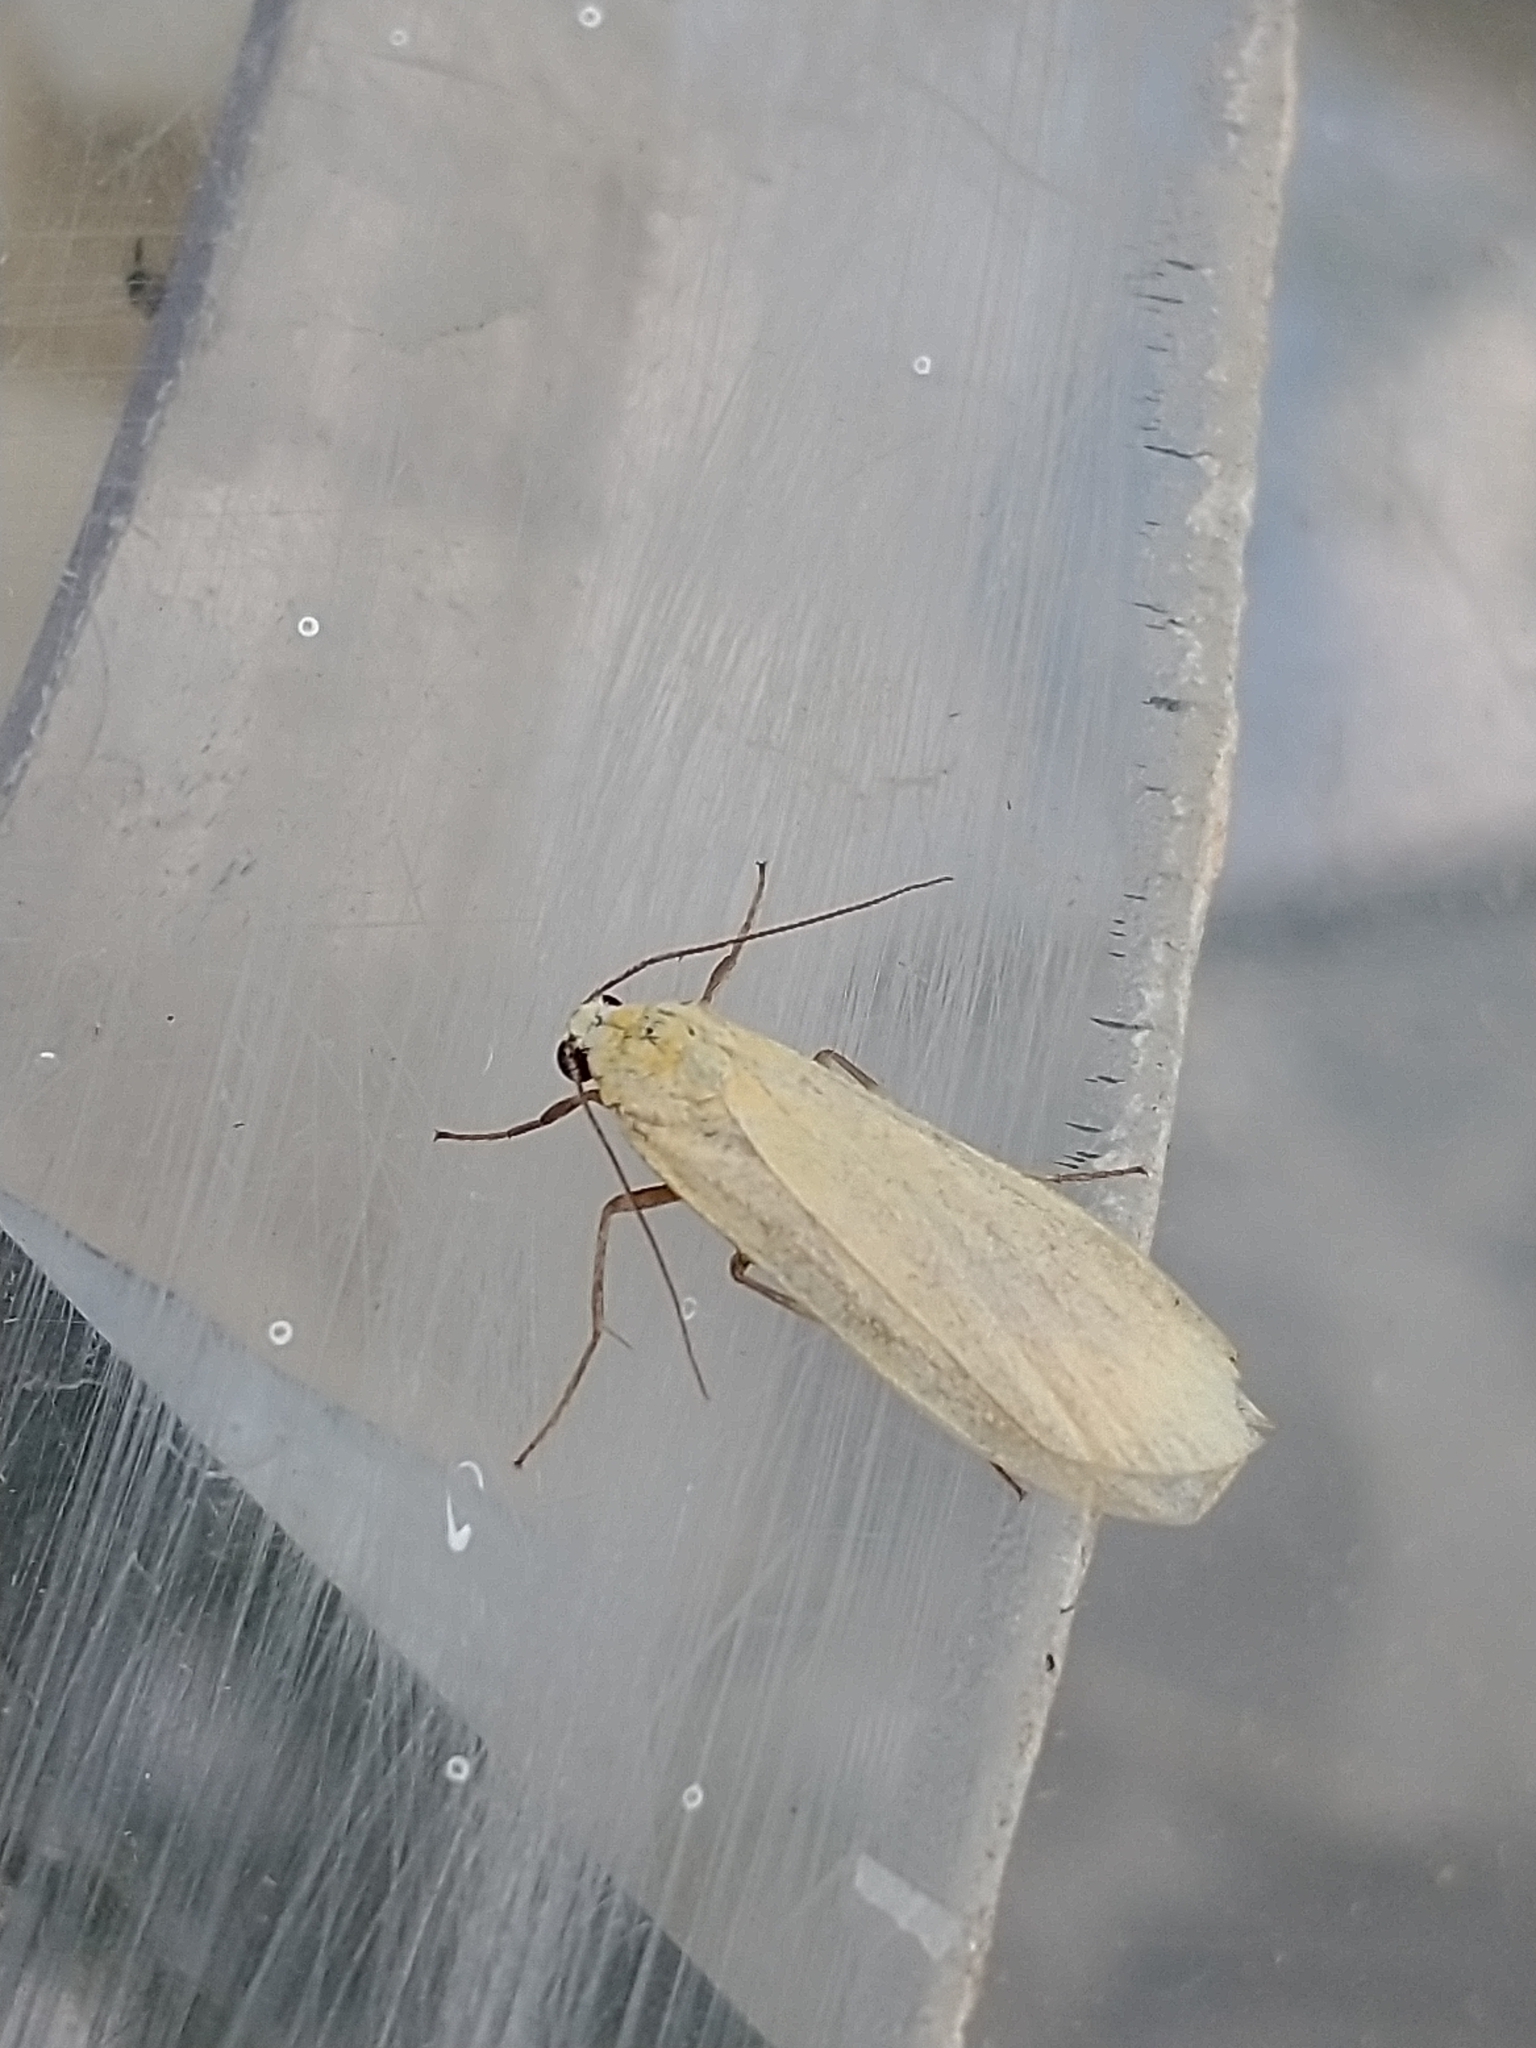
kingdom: Animalia
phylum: Arthropoda
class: Insecta
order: Lepidoptera
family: Erebidae
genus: Wittia
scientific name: Wittia sororcula
